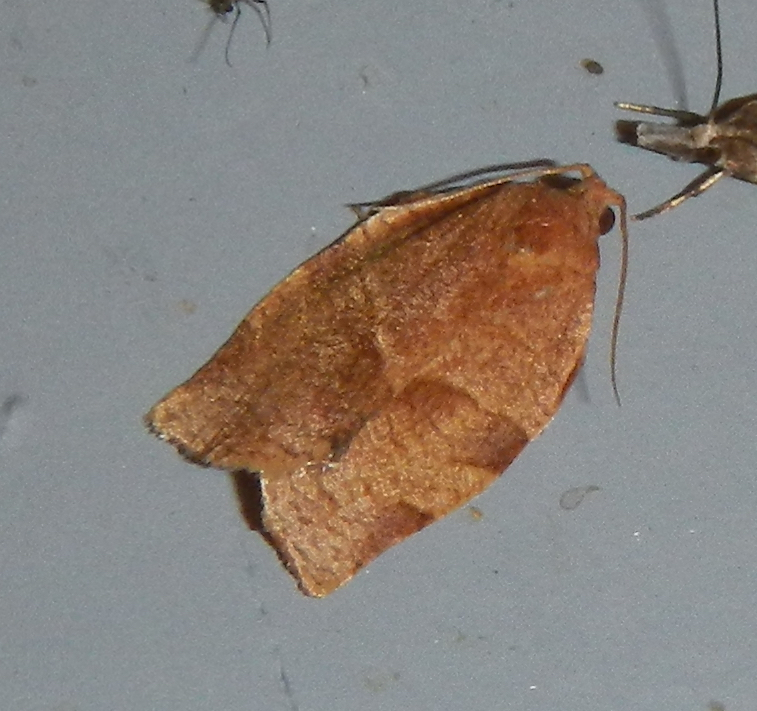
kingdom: Animalia
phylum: Arthropoda
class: Insecta
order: Lepidoptera
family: Tortricidae
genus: Choristoneura
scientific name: Choristoneura rosaceana
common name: Oblique-banded leafroller moth
